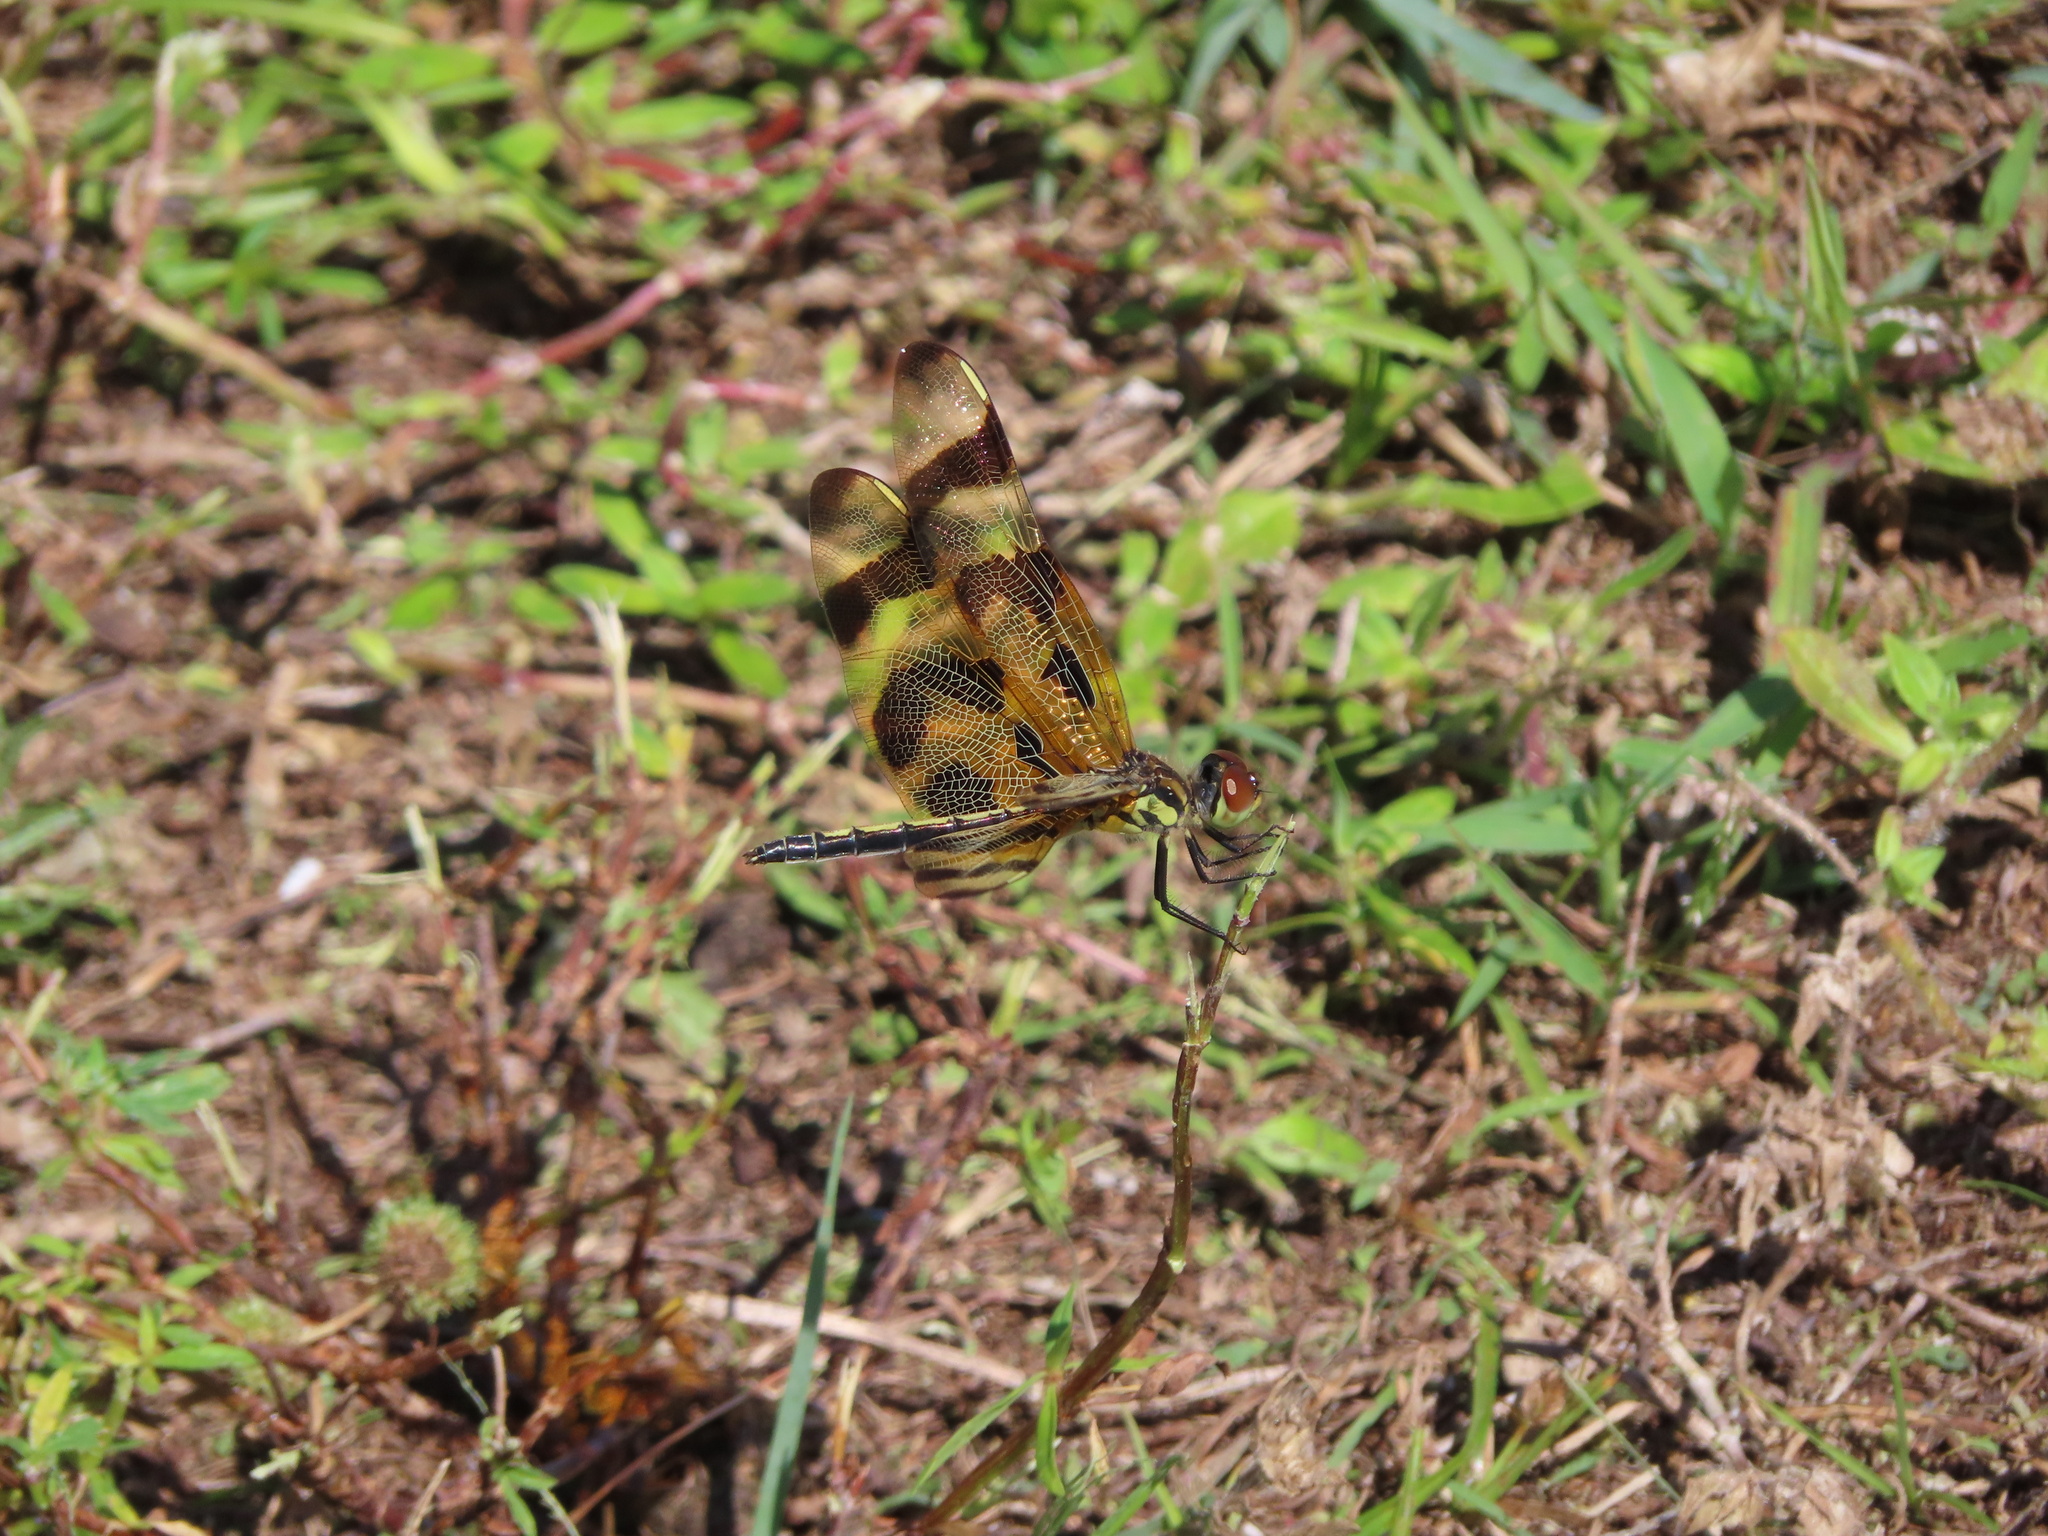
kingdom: Animalia
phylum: Arthropoda
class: Insecta
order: Odonata
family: Libellulidae
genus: Celithemis
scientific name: Celithemis eponina
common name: Halloween pennant
